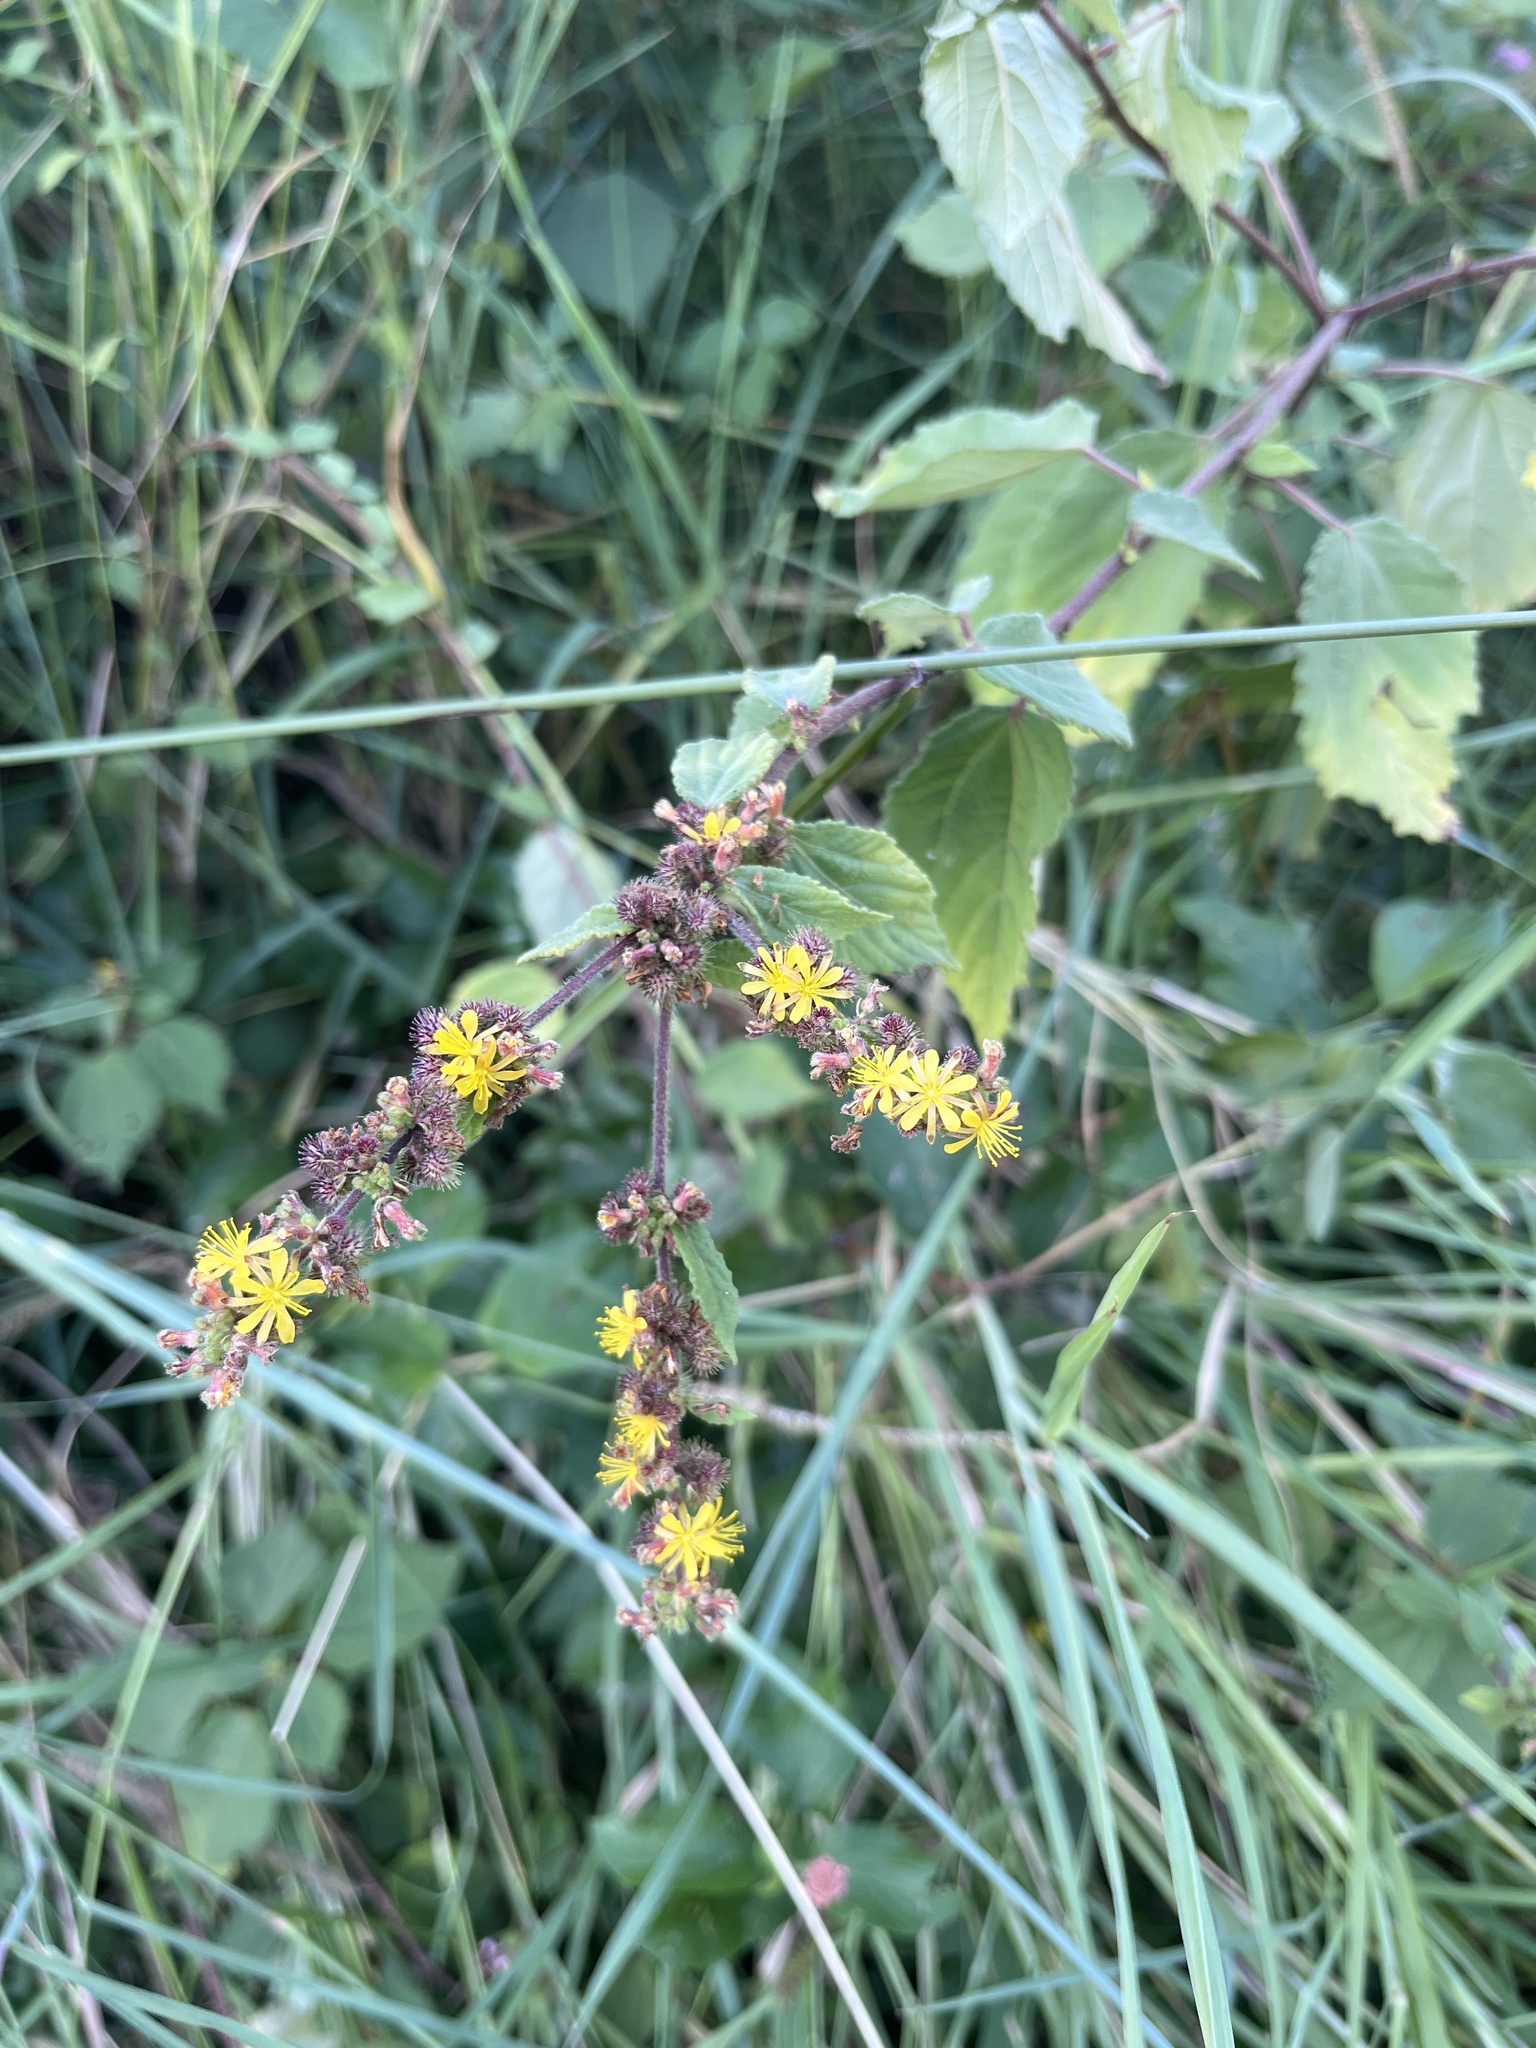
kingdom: Plantae
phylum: Tracheophyta
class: Magnoliopsida
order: Malvales
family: Malvaceae
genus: Triumfetta
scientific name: Triumfetta rhomboidea
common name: Diamond burbark
